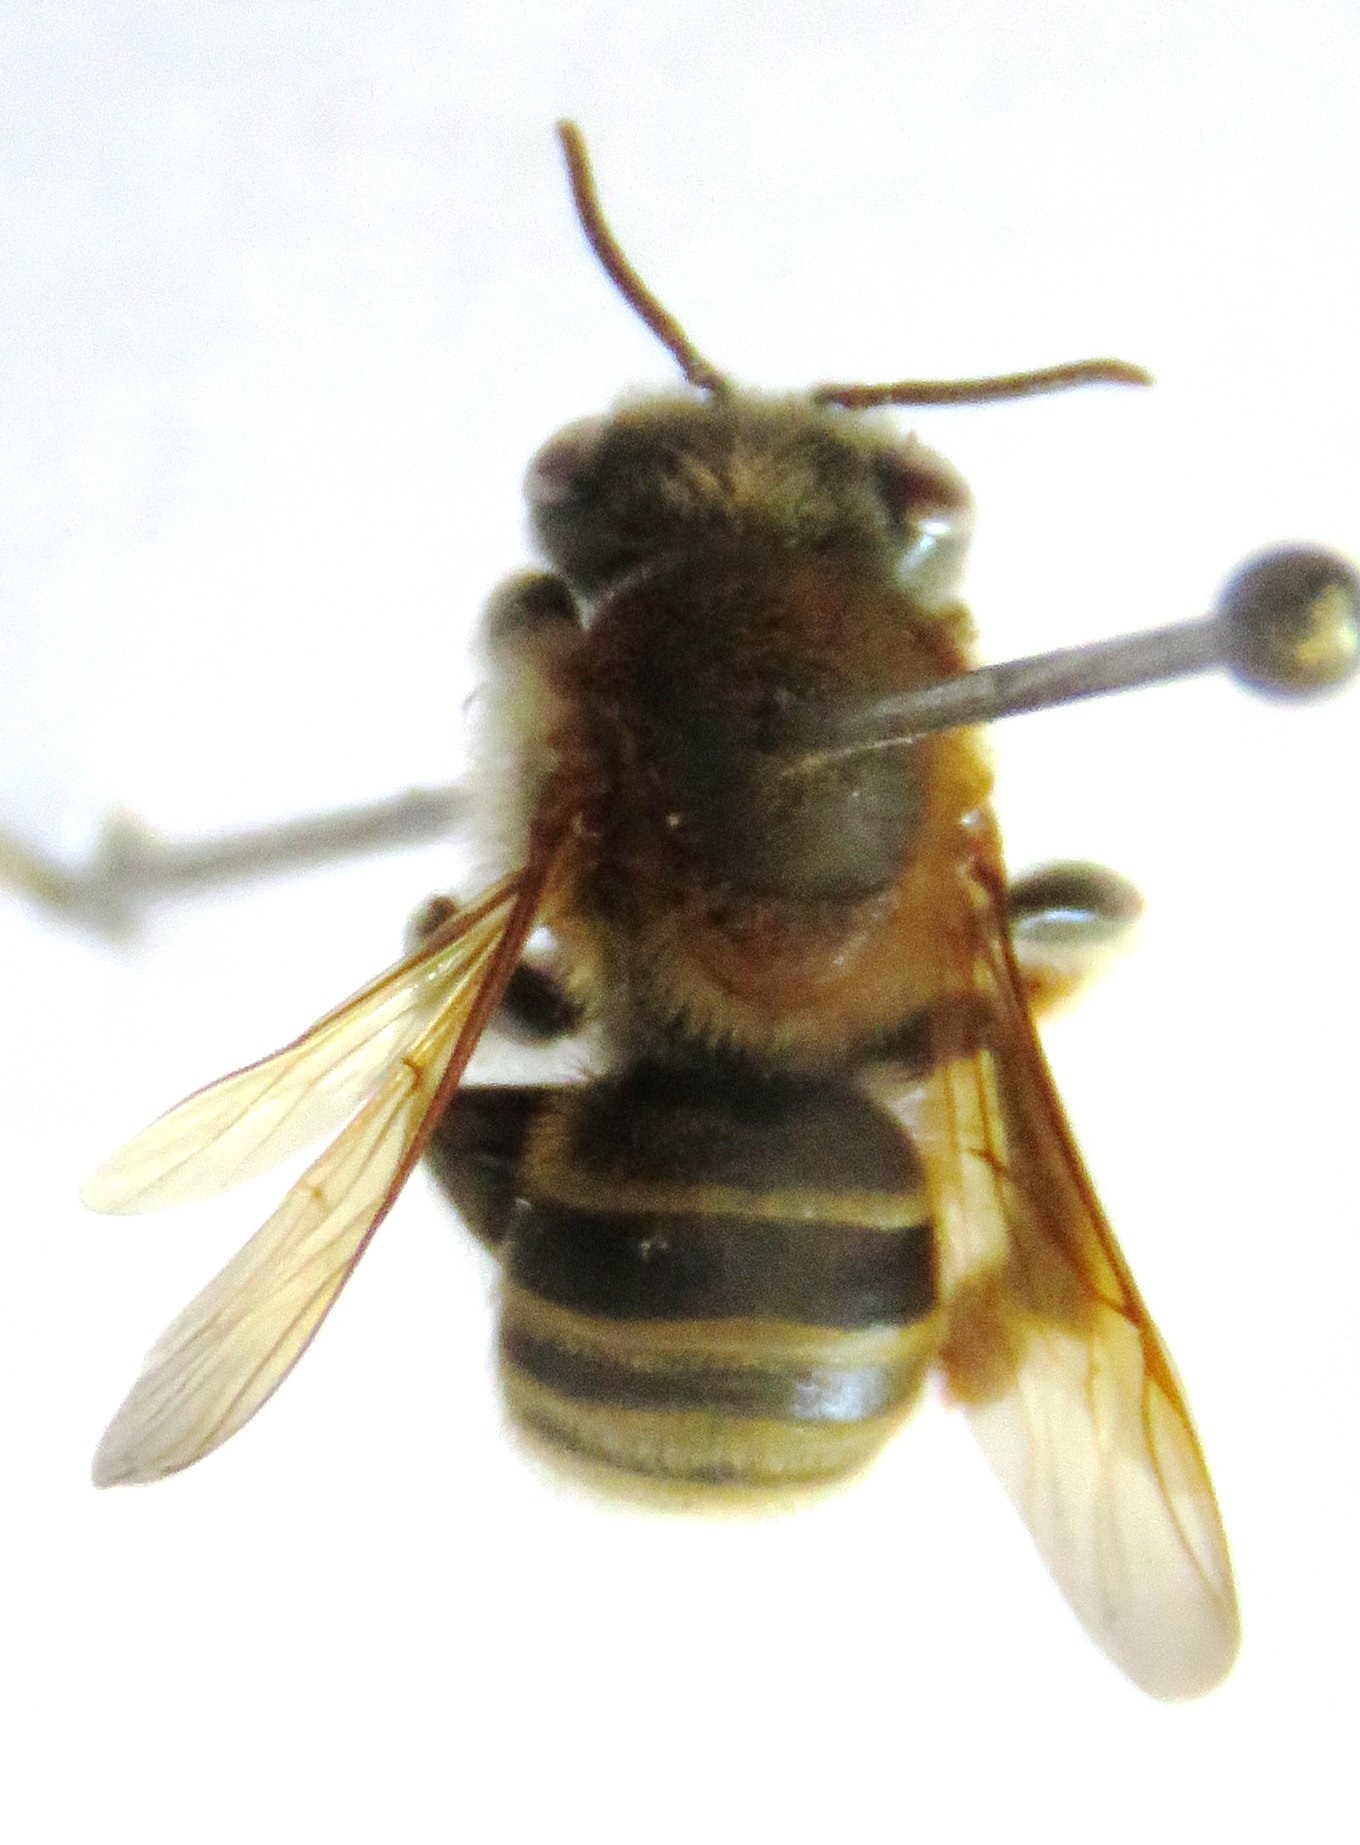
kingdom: Animalia
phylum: Arthropoda
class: Insecta
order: Hymenoptera
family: Apidae
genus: Melipona
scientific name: Melipona beecheii
